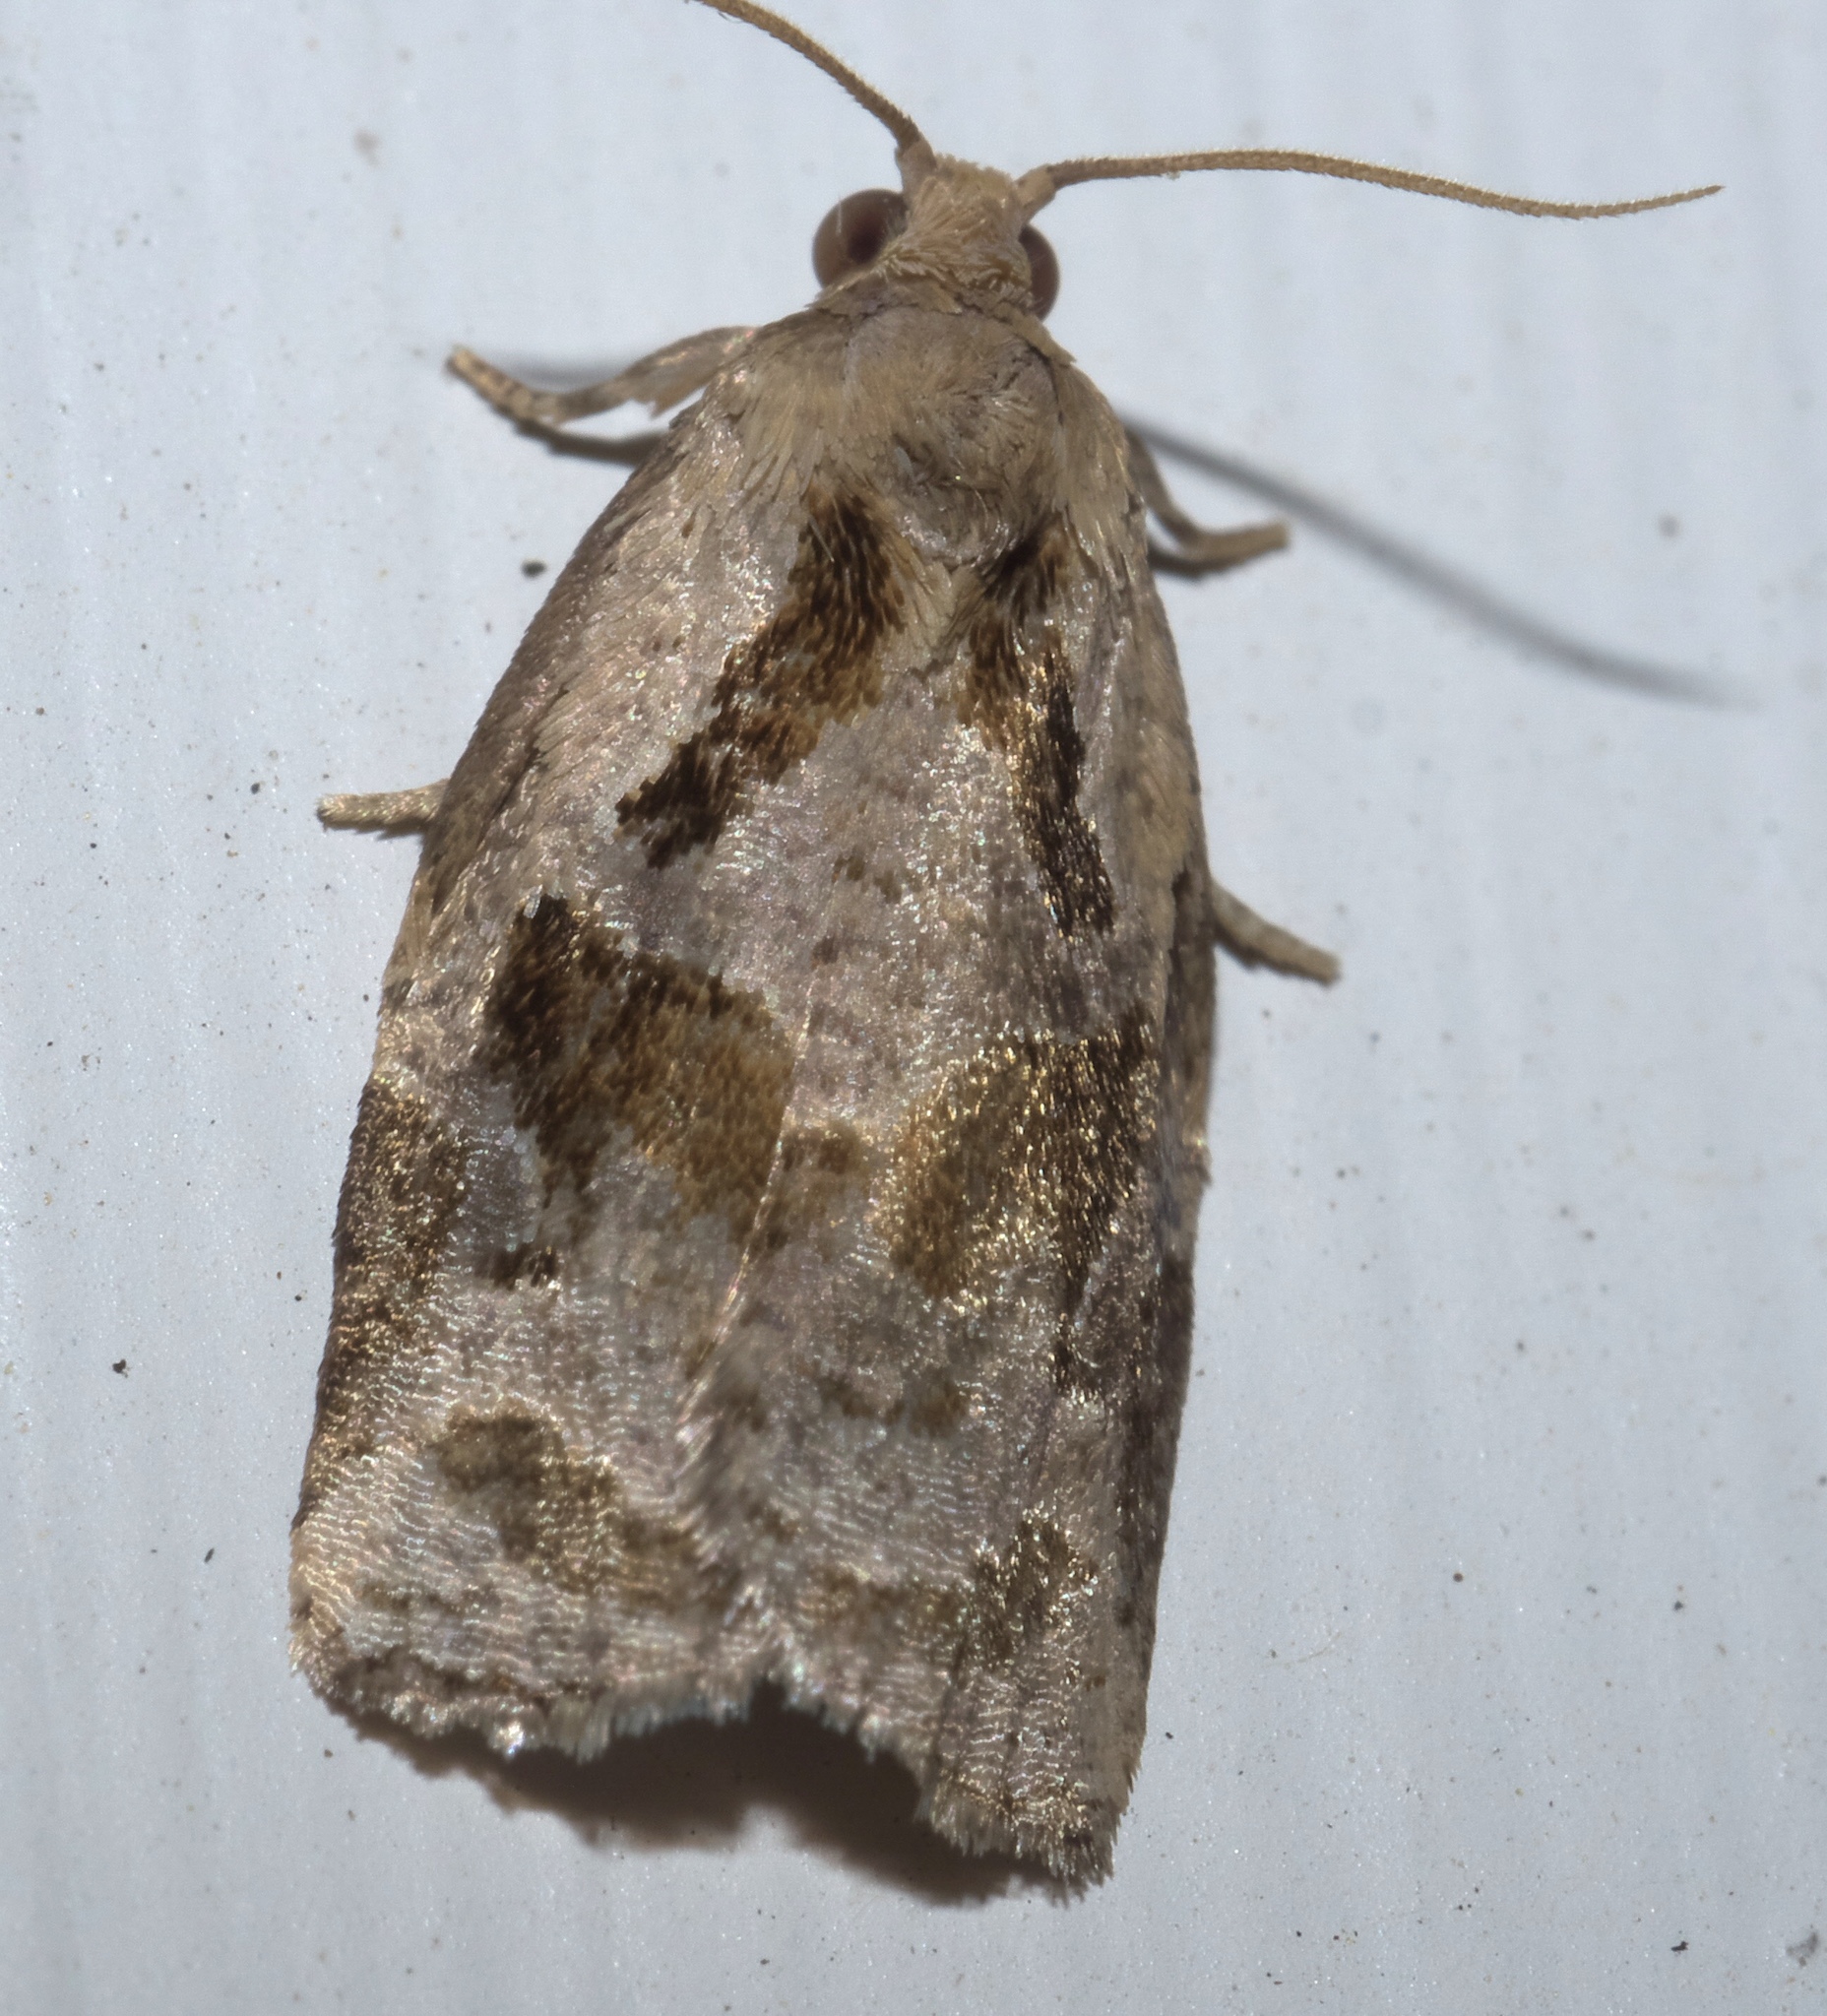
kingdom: Animalia
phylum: Arthropoda
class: Insecta
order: Lepidoptera
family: Tortricidae
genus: Archips
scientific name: Archips grisea
